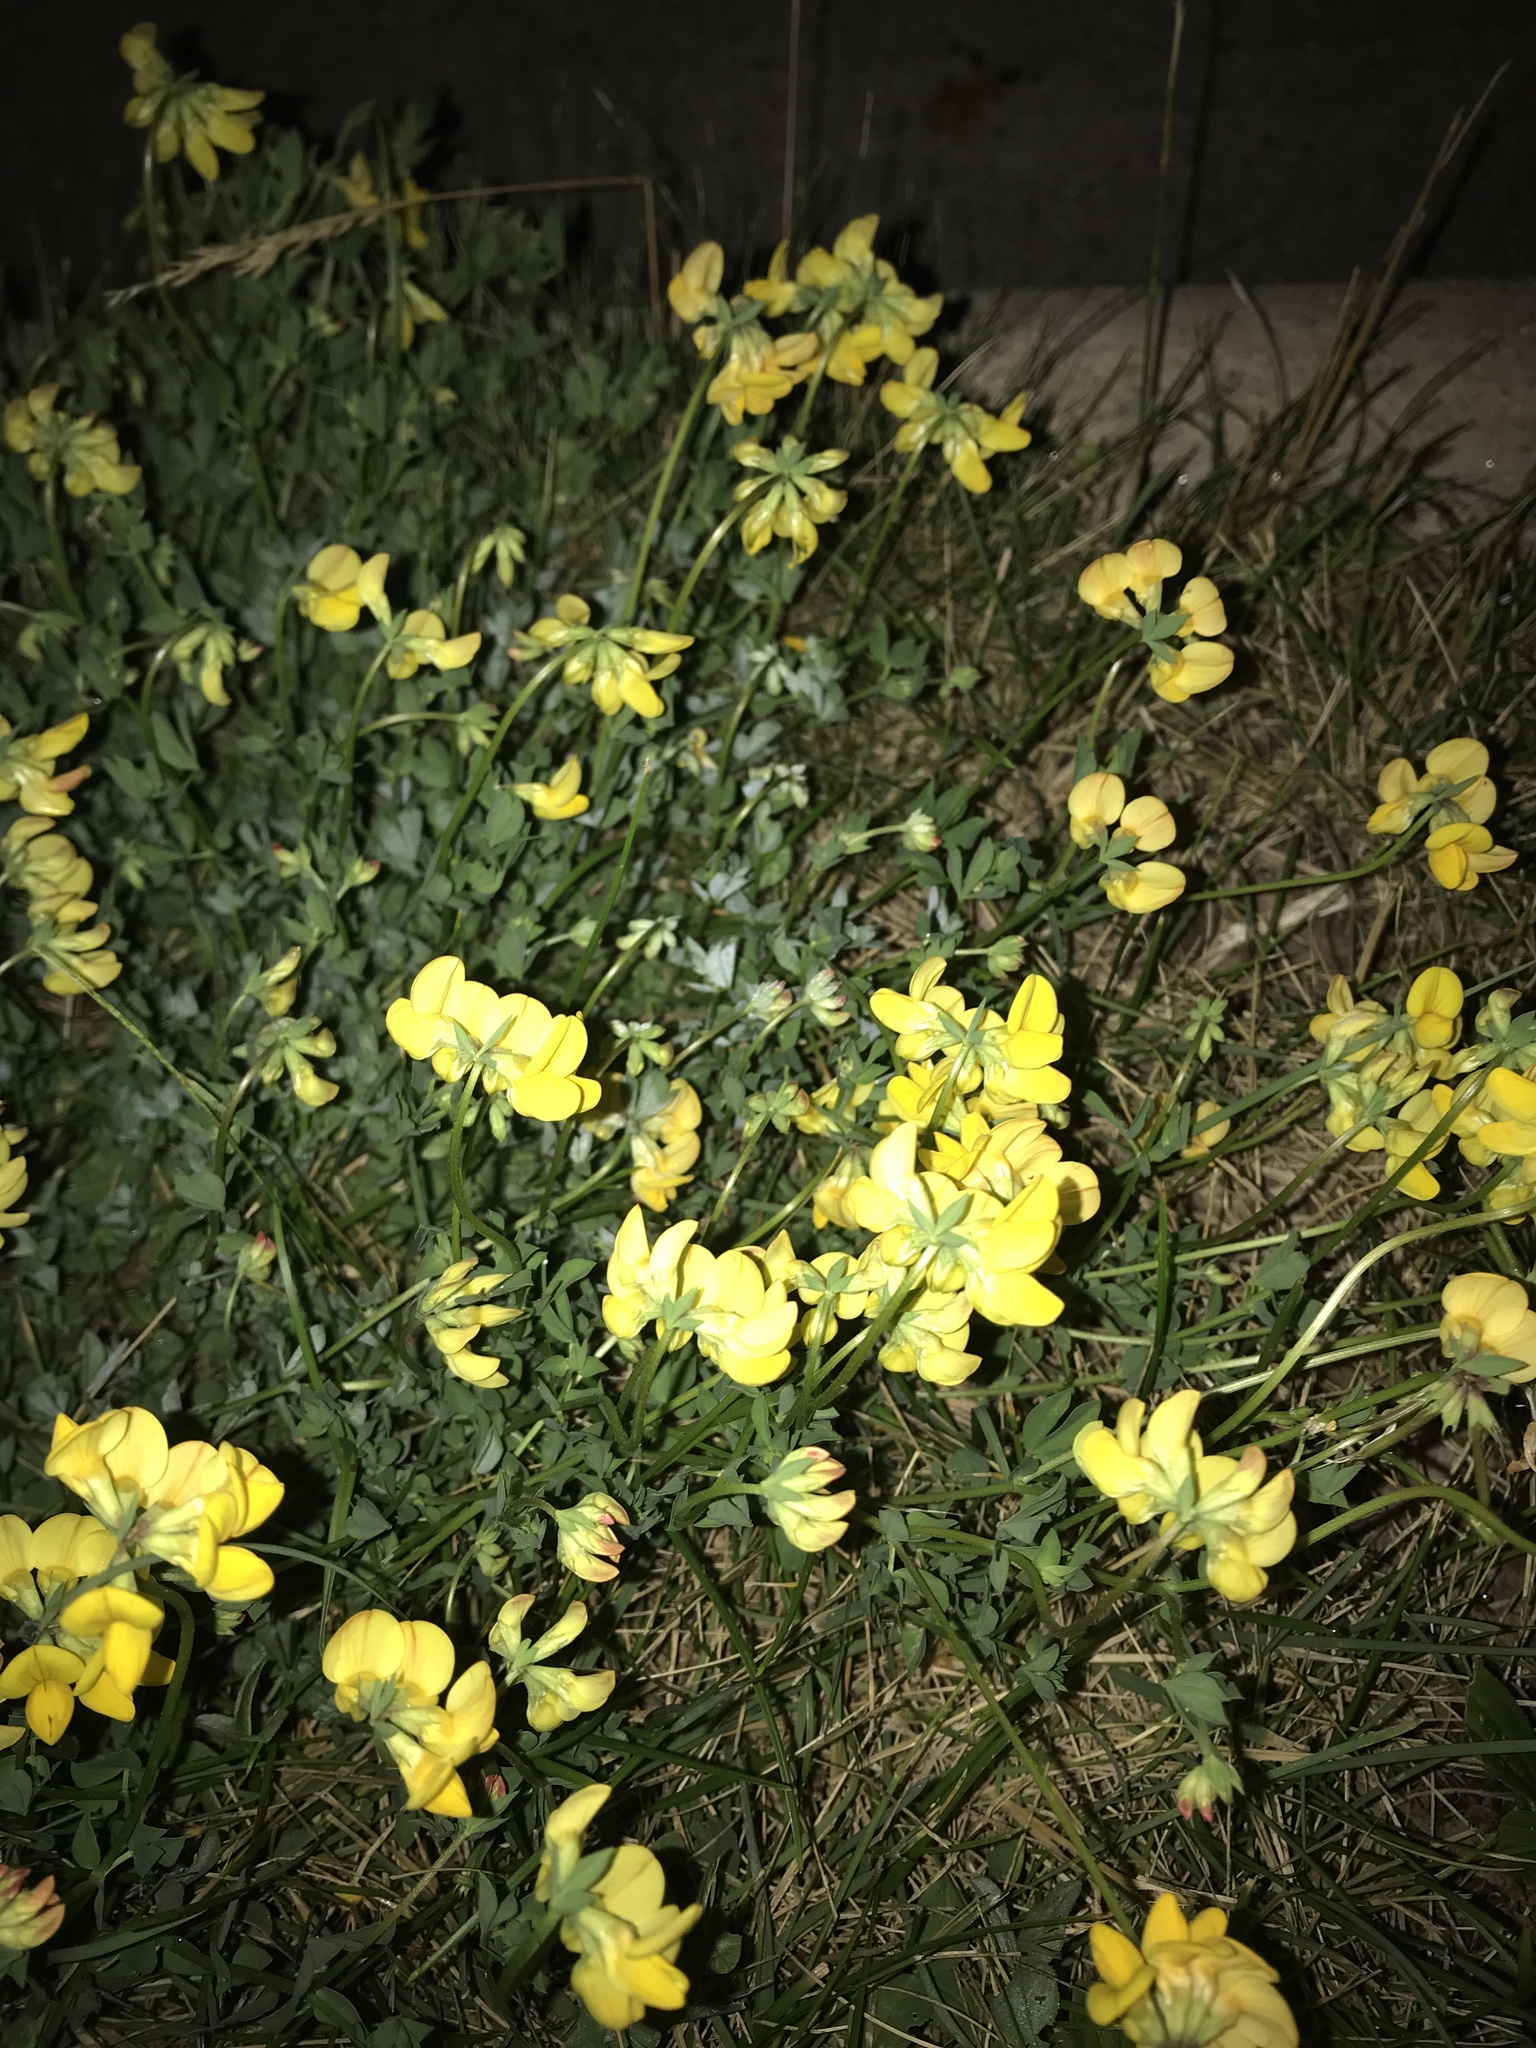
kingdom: Plantae
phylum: Tracheophyta
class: Magnoliopsida
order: Fabales
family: Fabaceae
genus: Lotus
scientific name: Lotus corniculatus
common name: Common bird's-foot-trefoil
